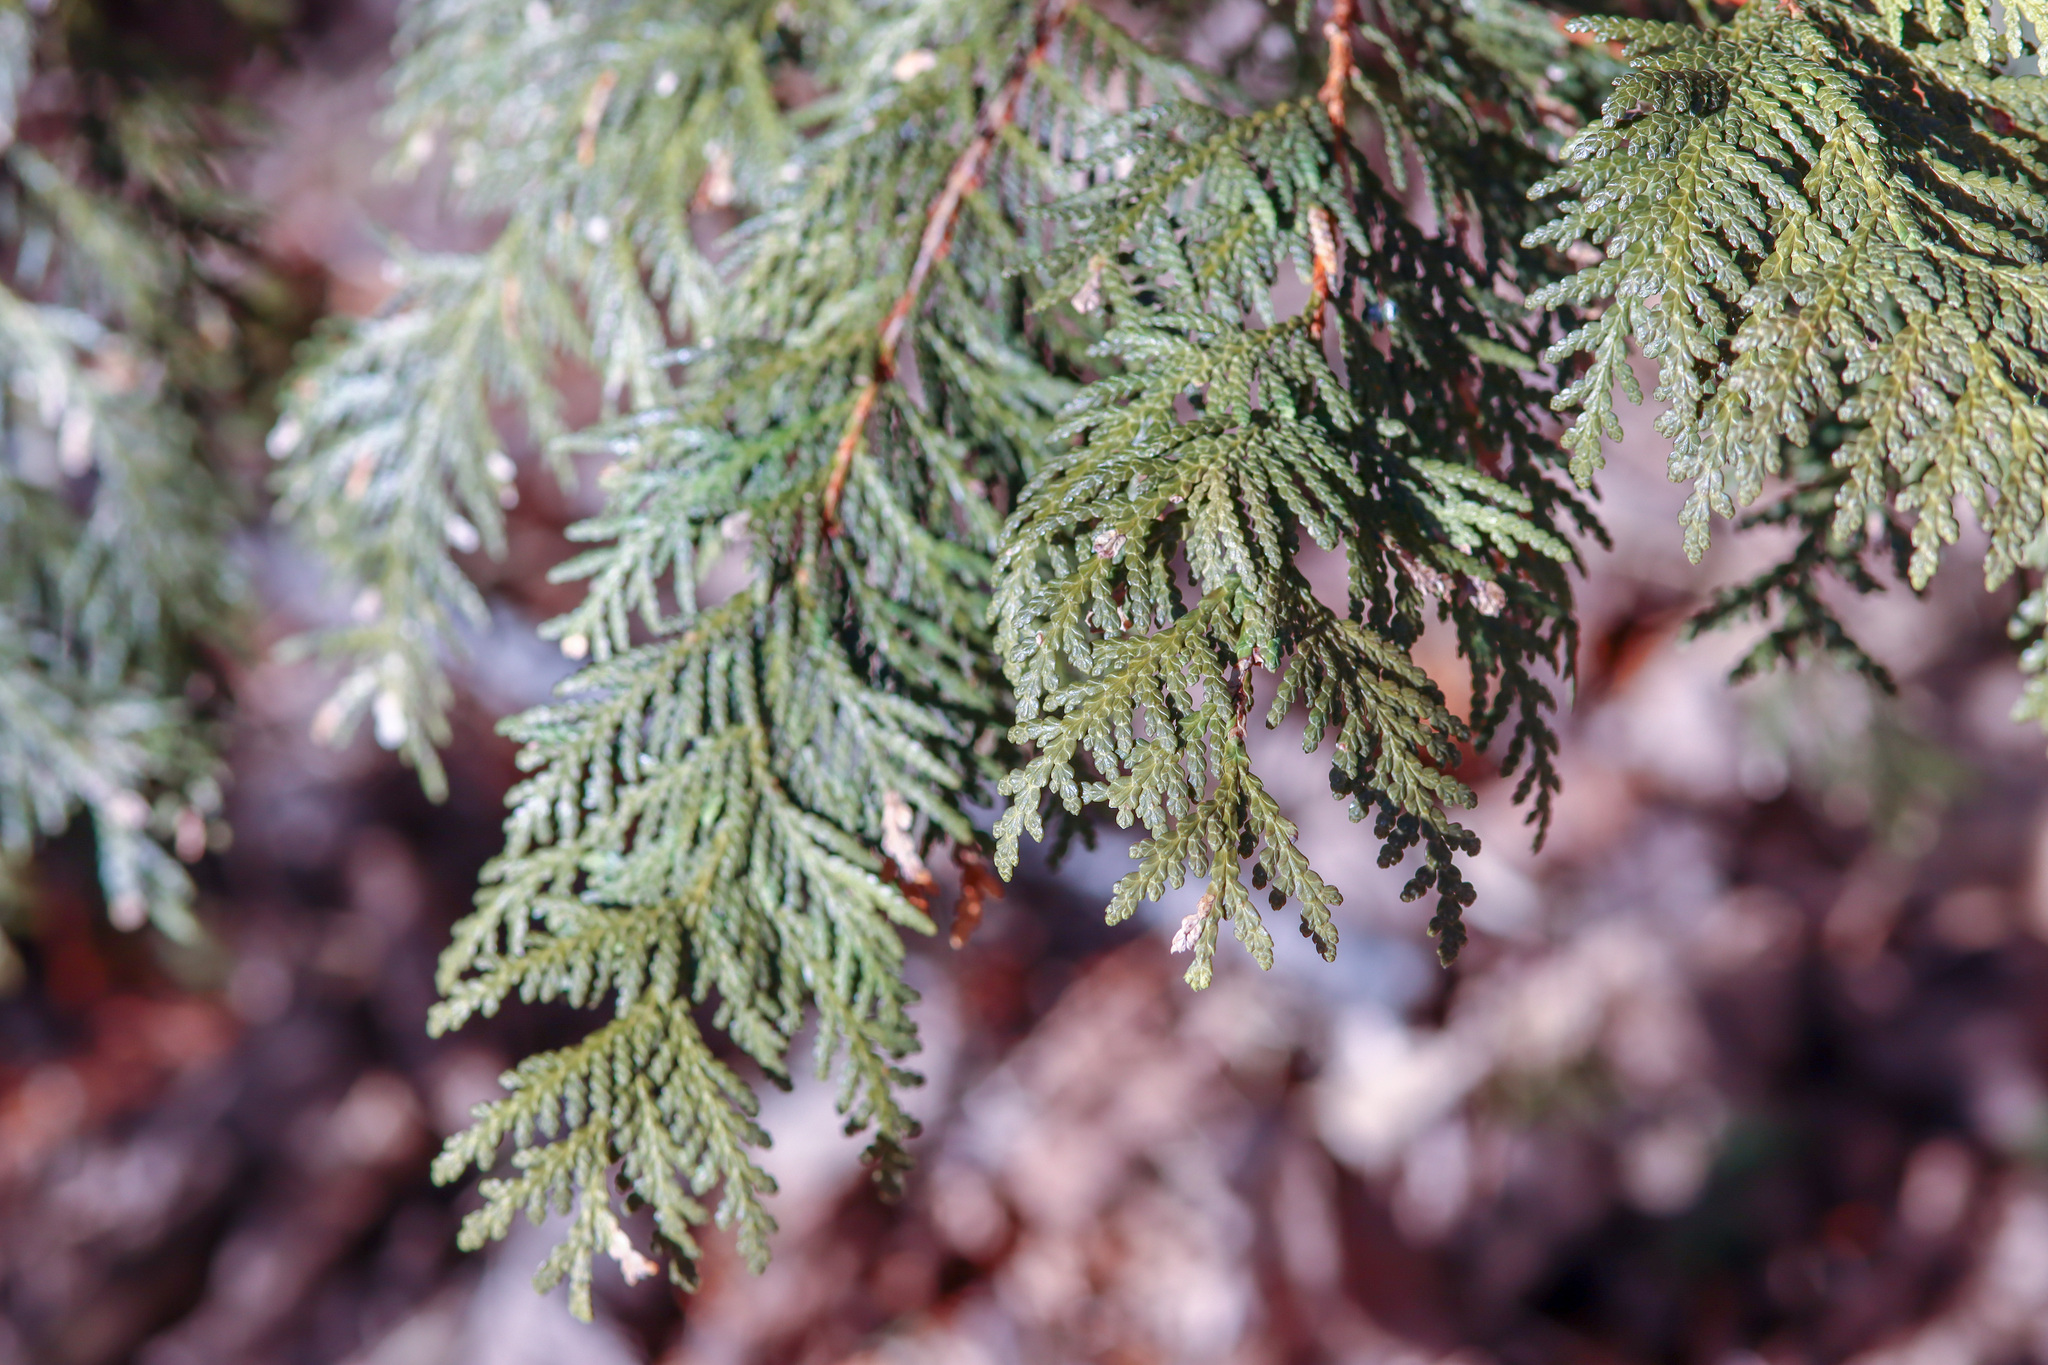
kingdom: Plantae
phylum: Tracheophyta
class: Pinopsida
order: Pinales
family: Cupressaceae
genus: Thuja
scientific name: Thuja occidentalis
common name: Northern white-cedar
